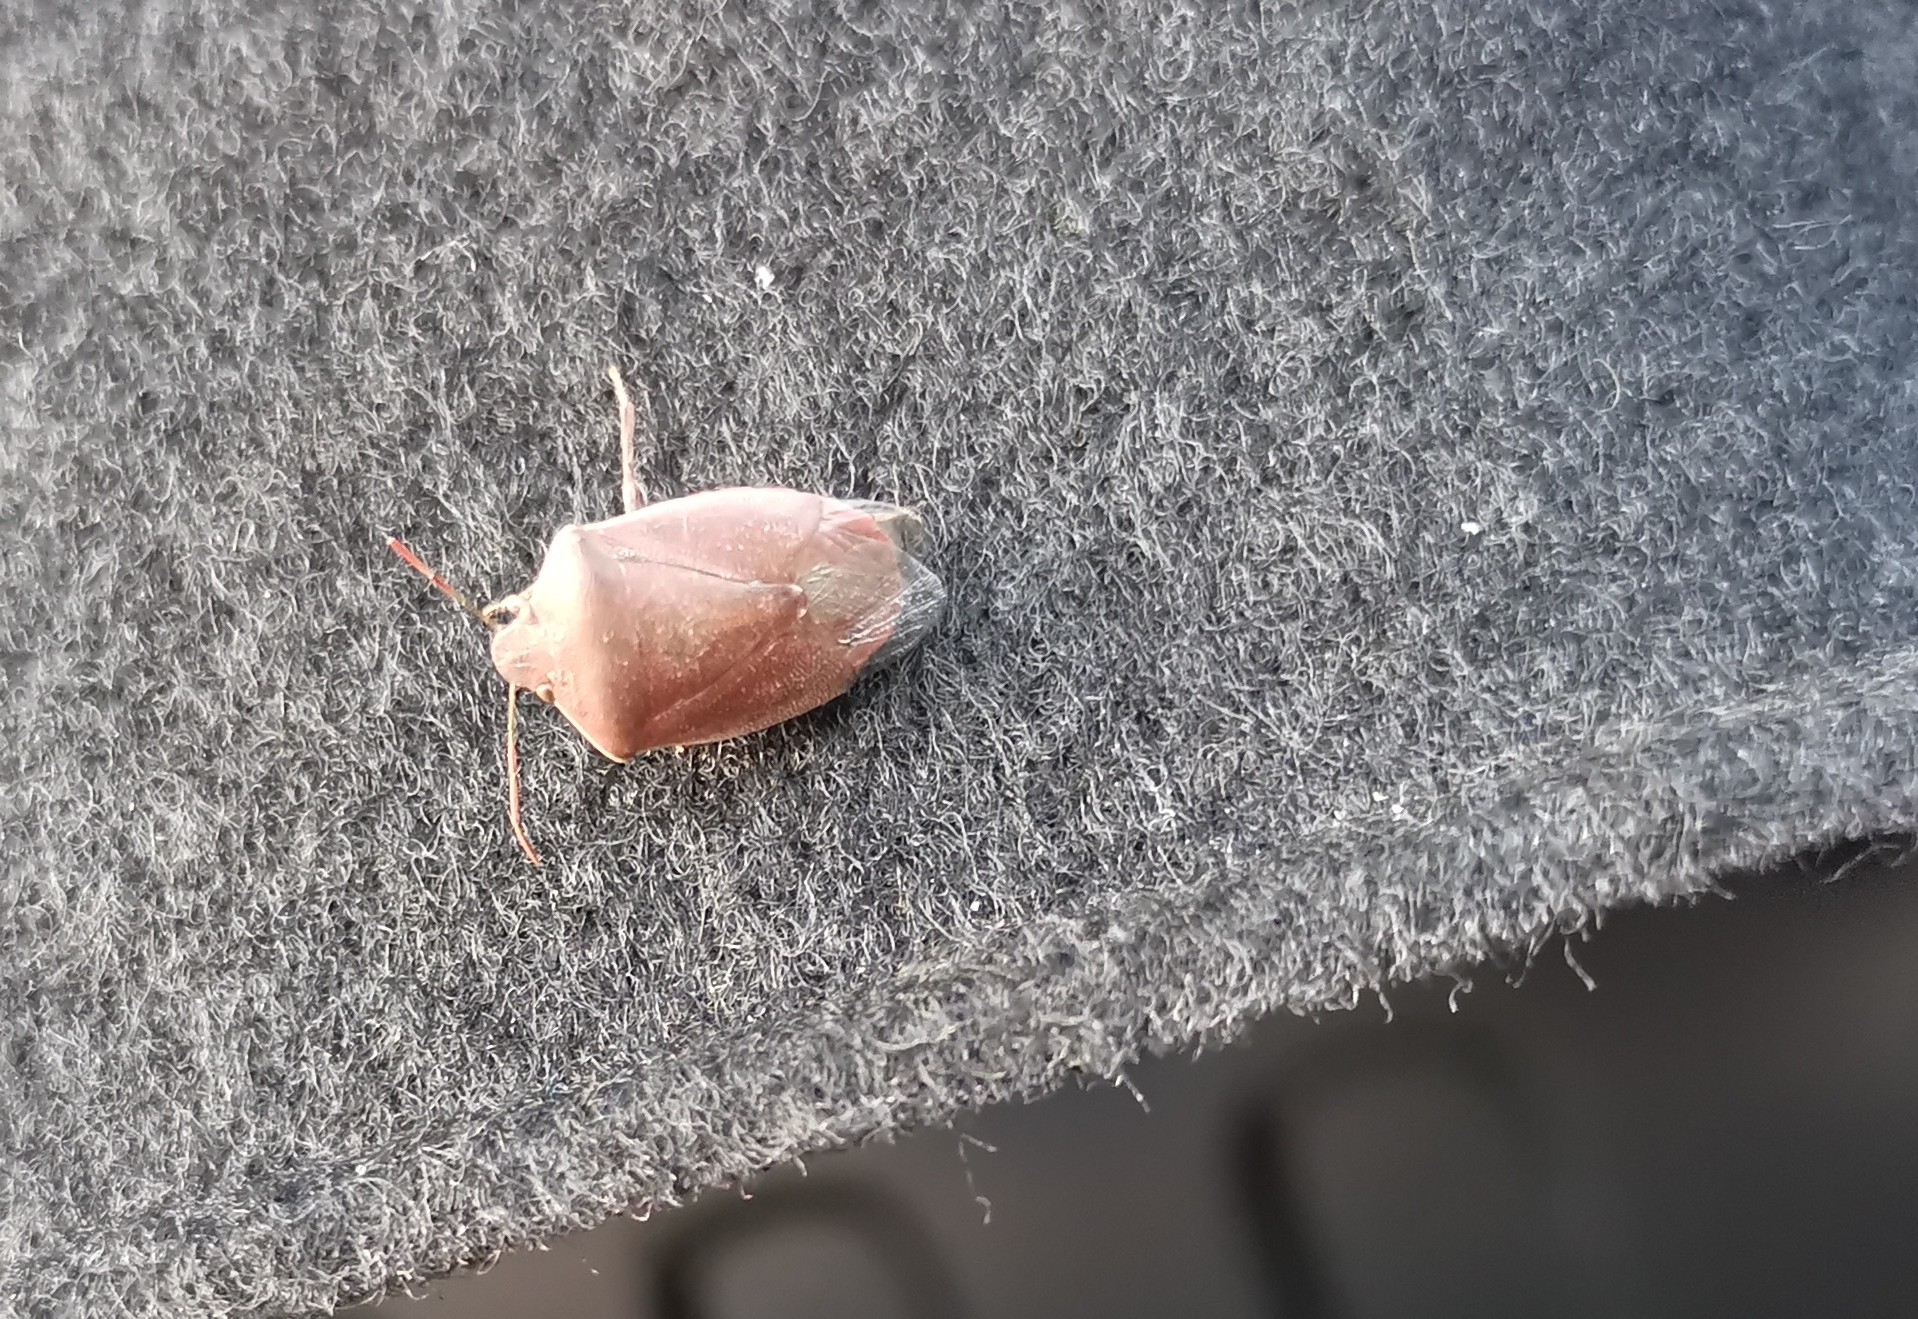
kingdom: Animalia
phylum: Arthropoda
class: Insecta
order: Hemiptera
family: Pentatomidae
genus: Acrosternum
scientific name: Acrosternum heegeri
